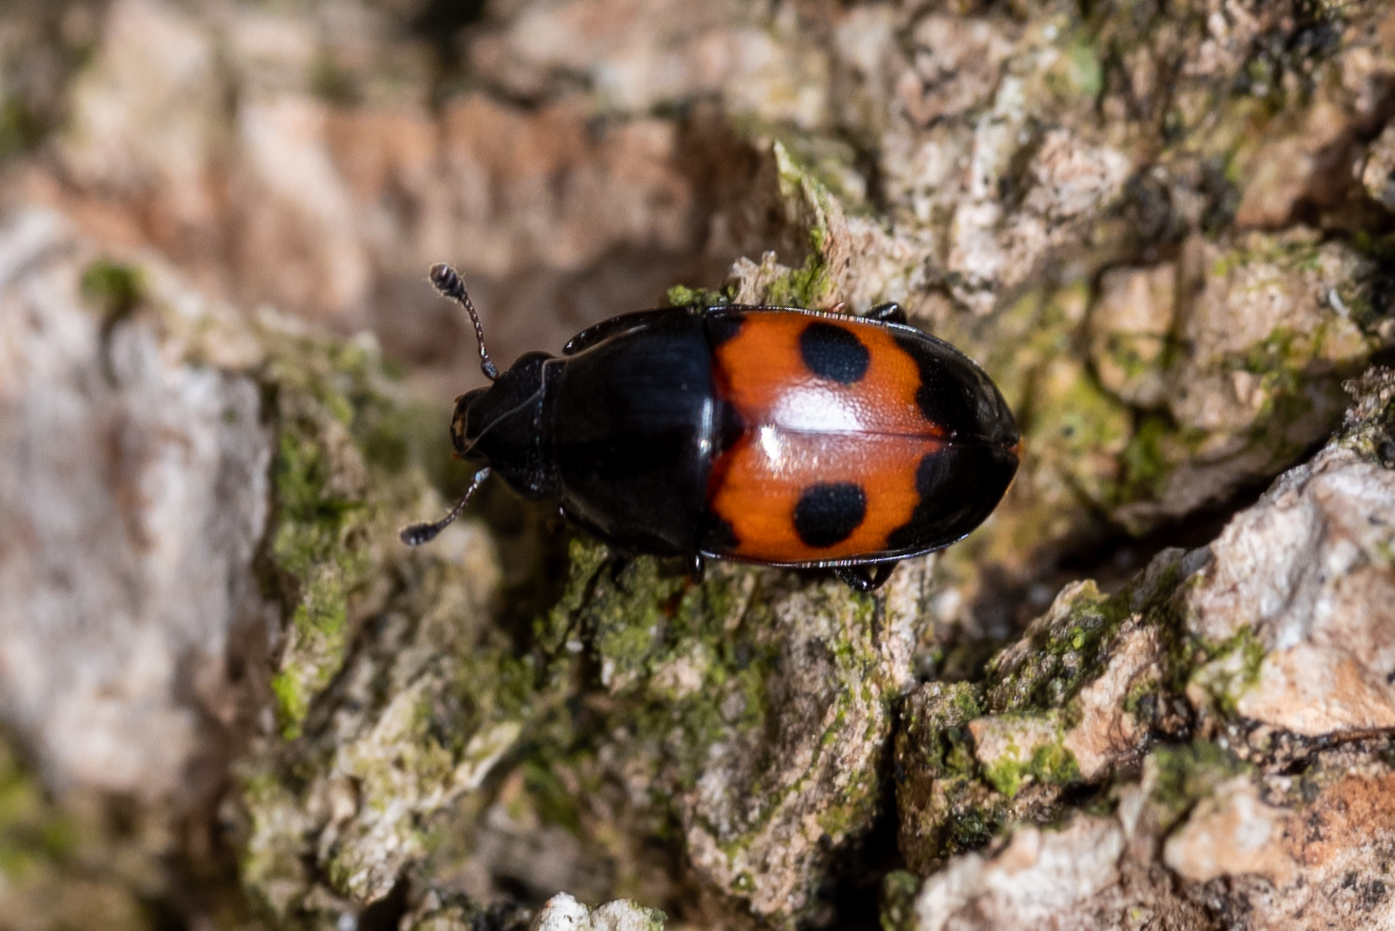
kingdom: Animalia
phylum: Arthropoda
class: Insecta
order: Coleoptera
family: Nitidulidae
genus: Glischrochilus
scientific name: Glischrochilus sanguinolentus
